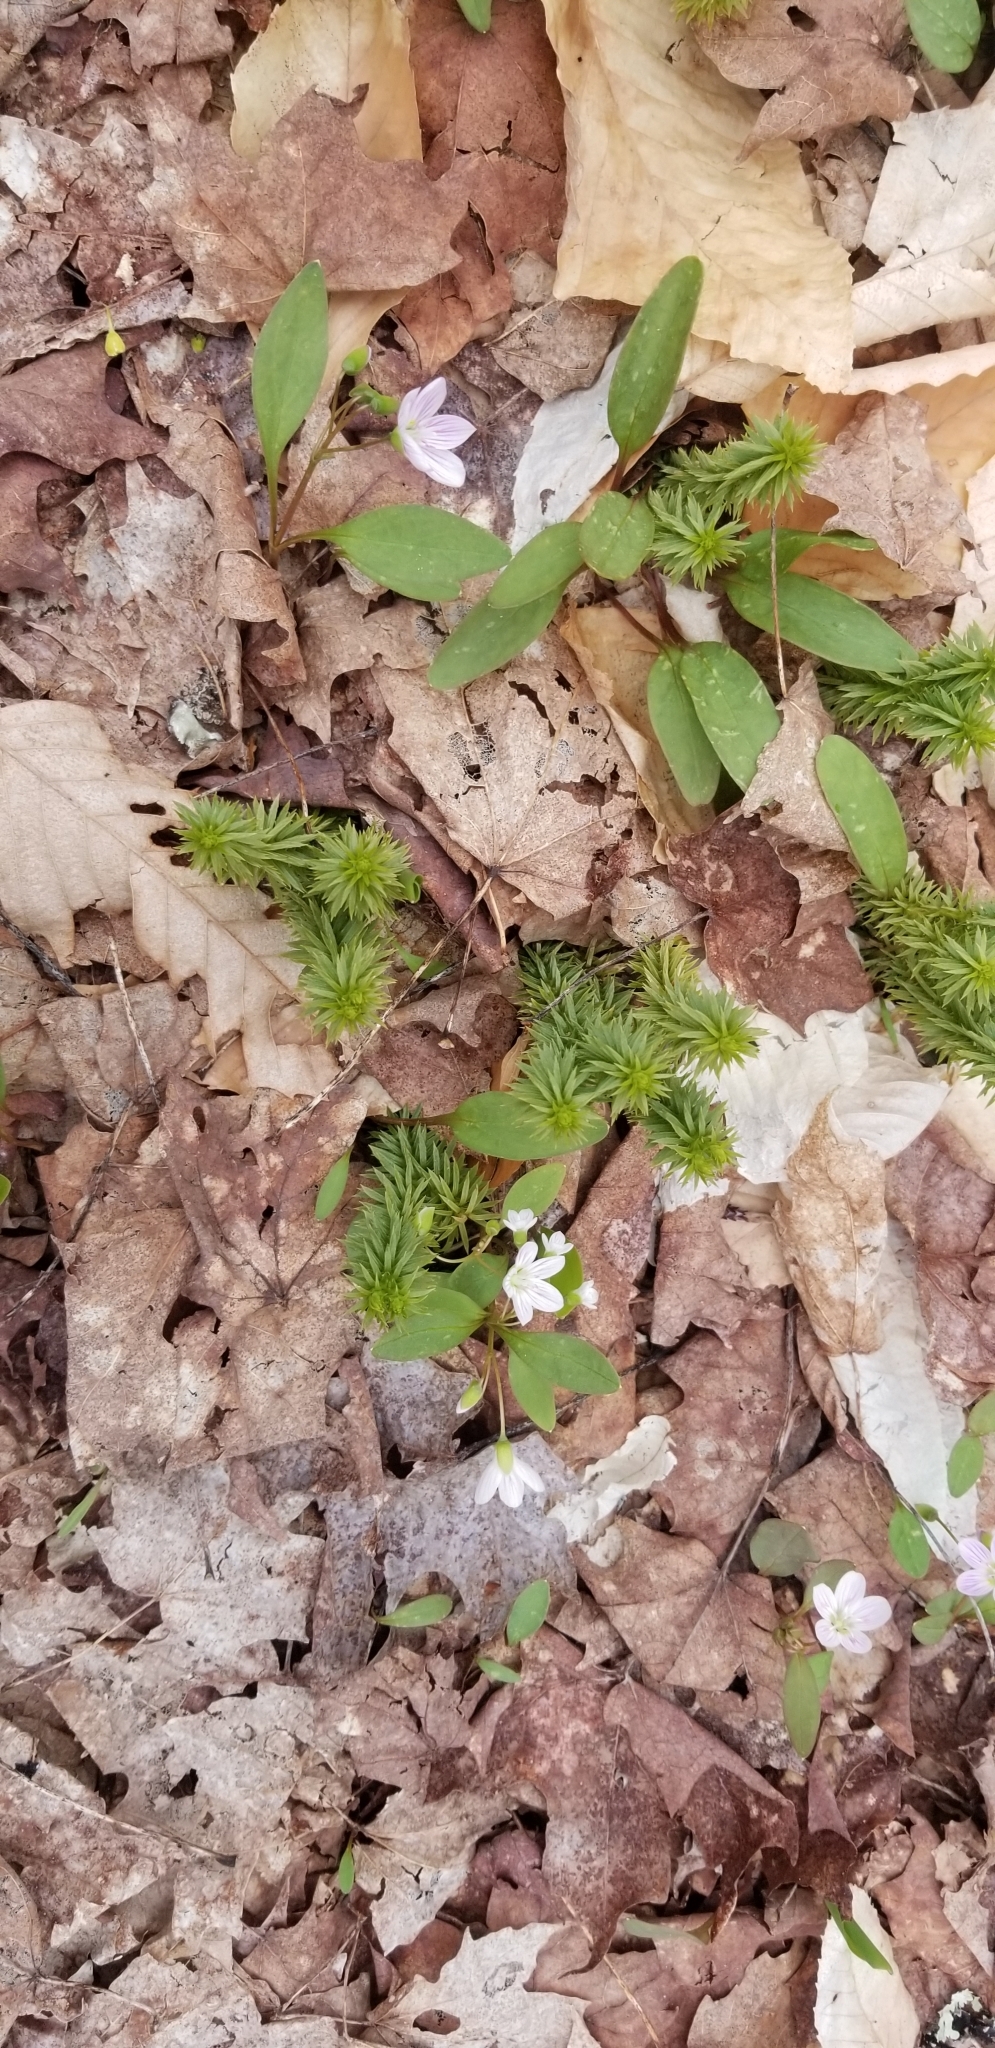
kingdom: Plantae
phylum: Tracheophyta
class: Magnoliopsida
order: Caryophyllales
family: Montiaceae
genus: Claytonia
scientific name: Claytonia caroliniana
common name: Carolina spring beauty
